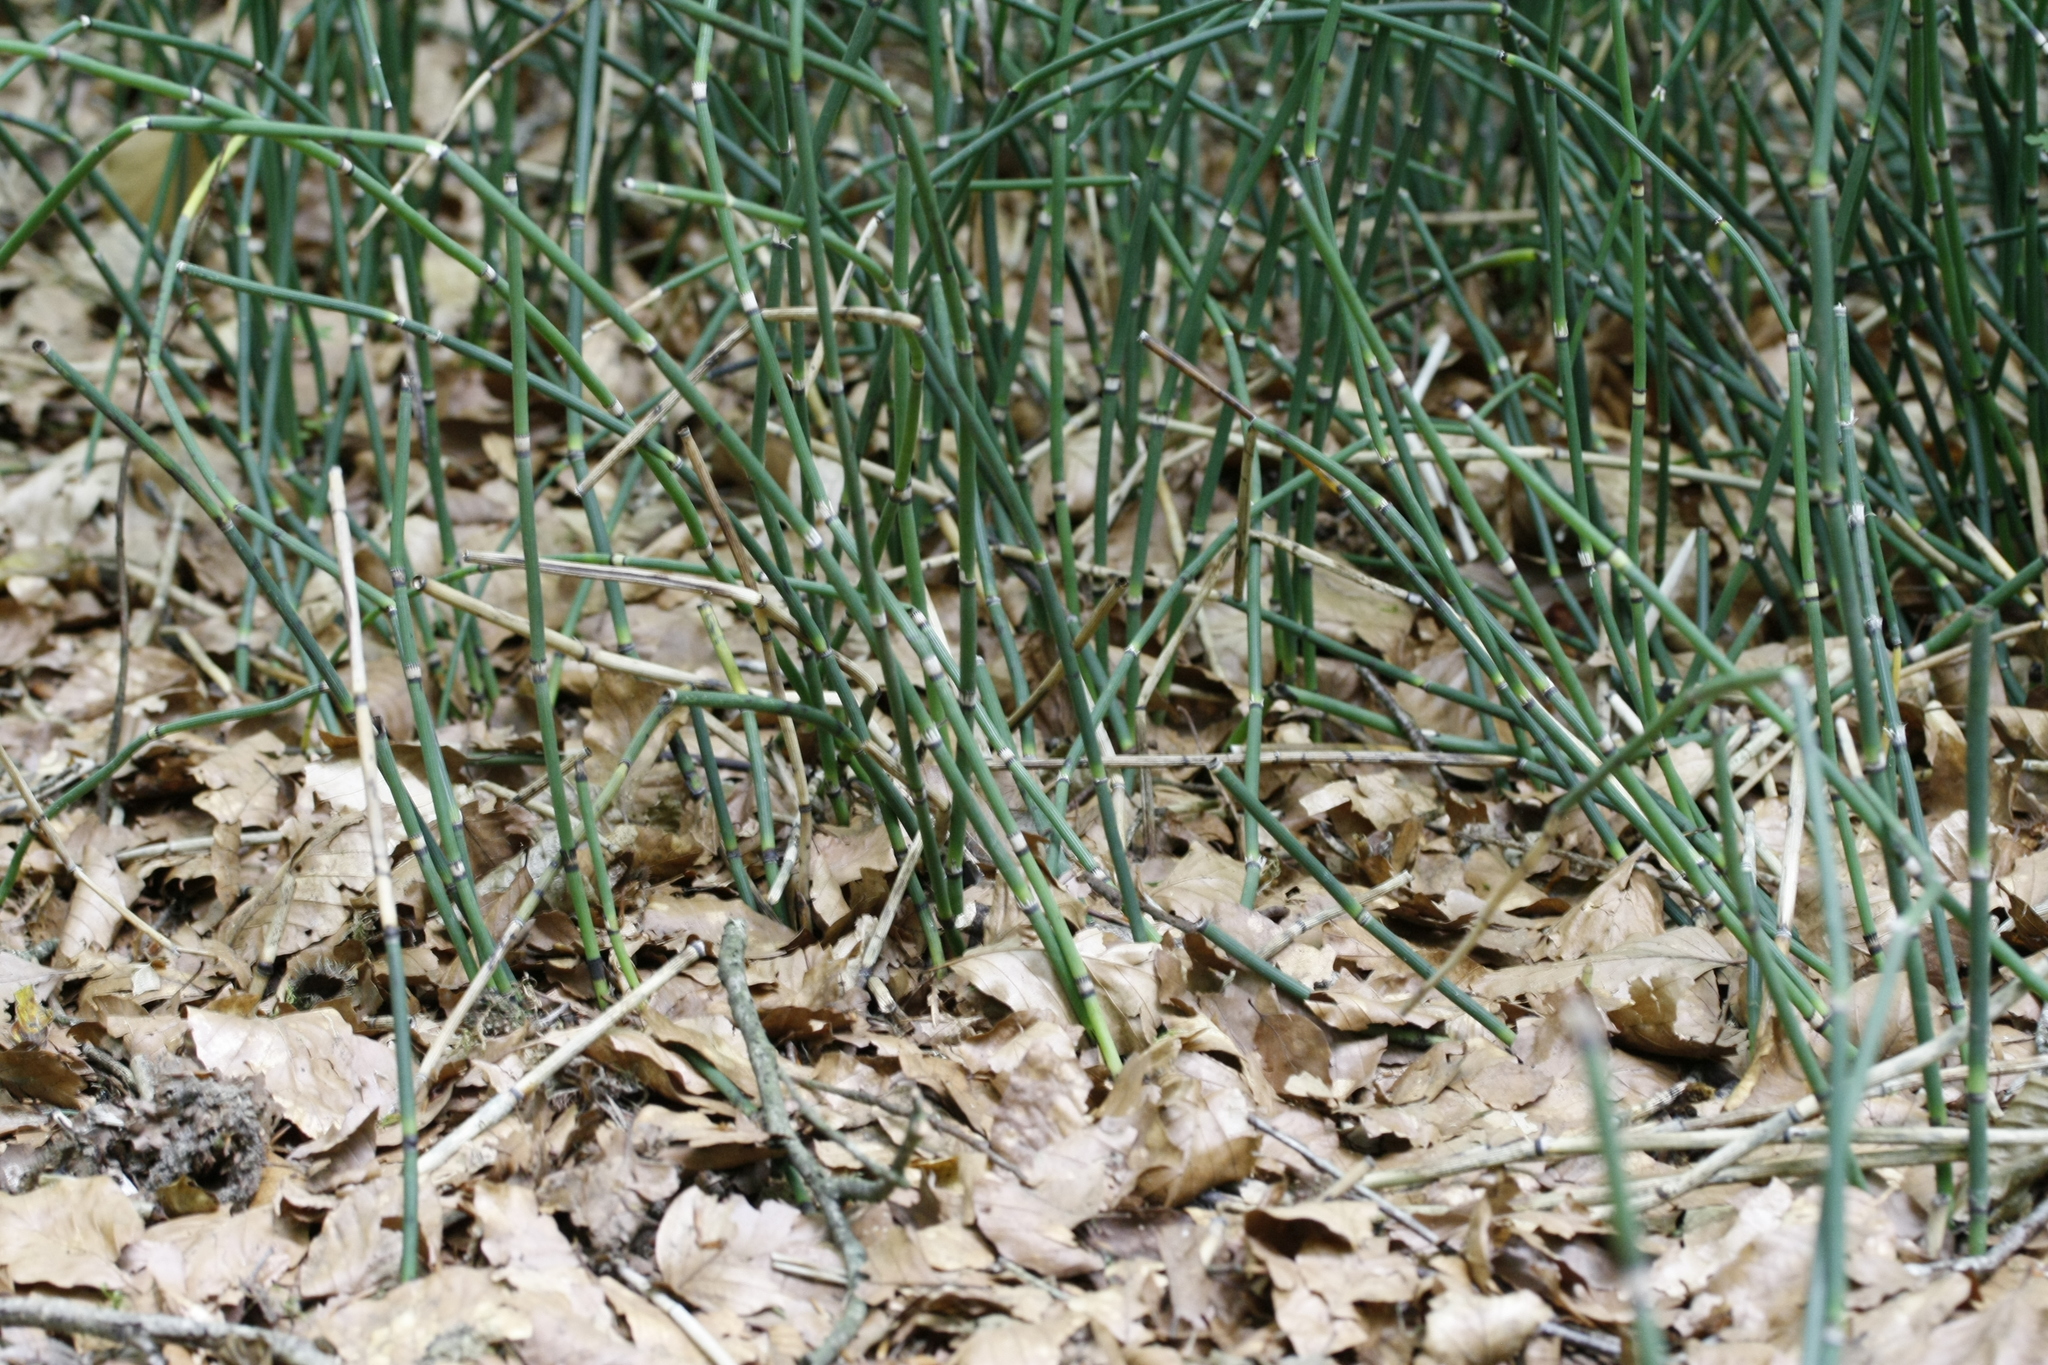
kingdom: Plantae
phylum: Tracheophyta
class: Polypodiopsida
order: Equisetales
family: Equisetaceae
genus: Equisetum
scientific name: Equisetum hyemale
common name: Rough horsetail
